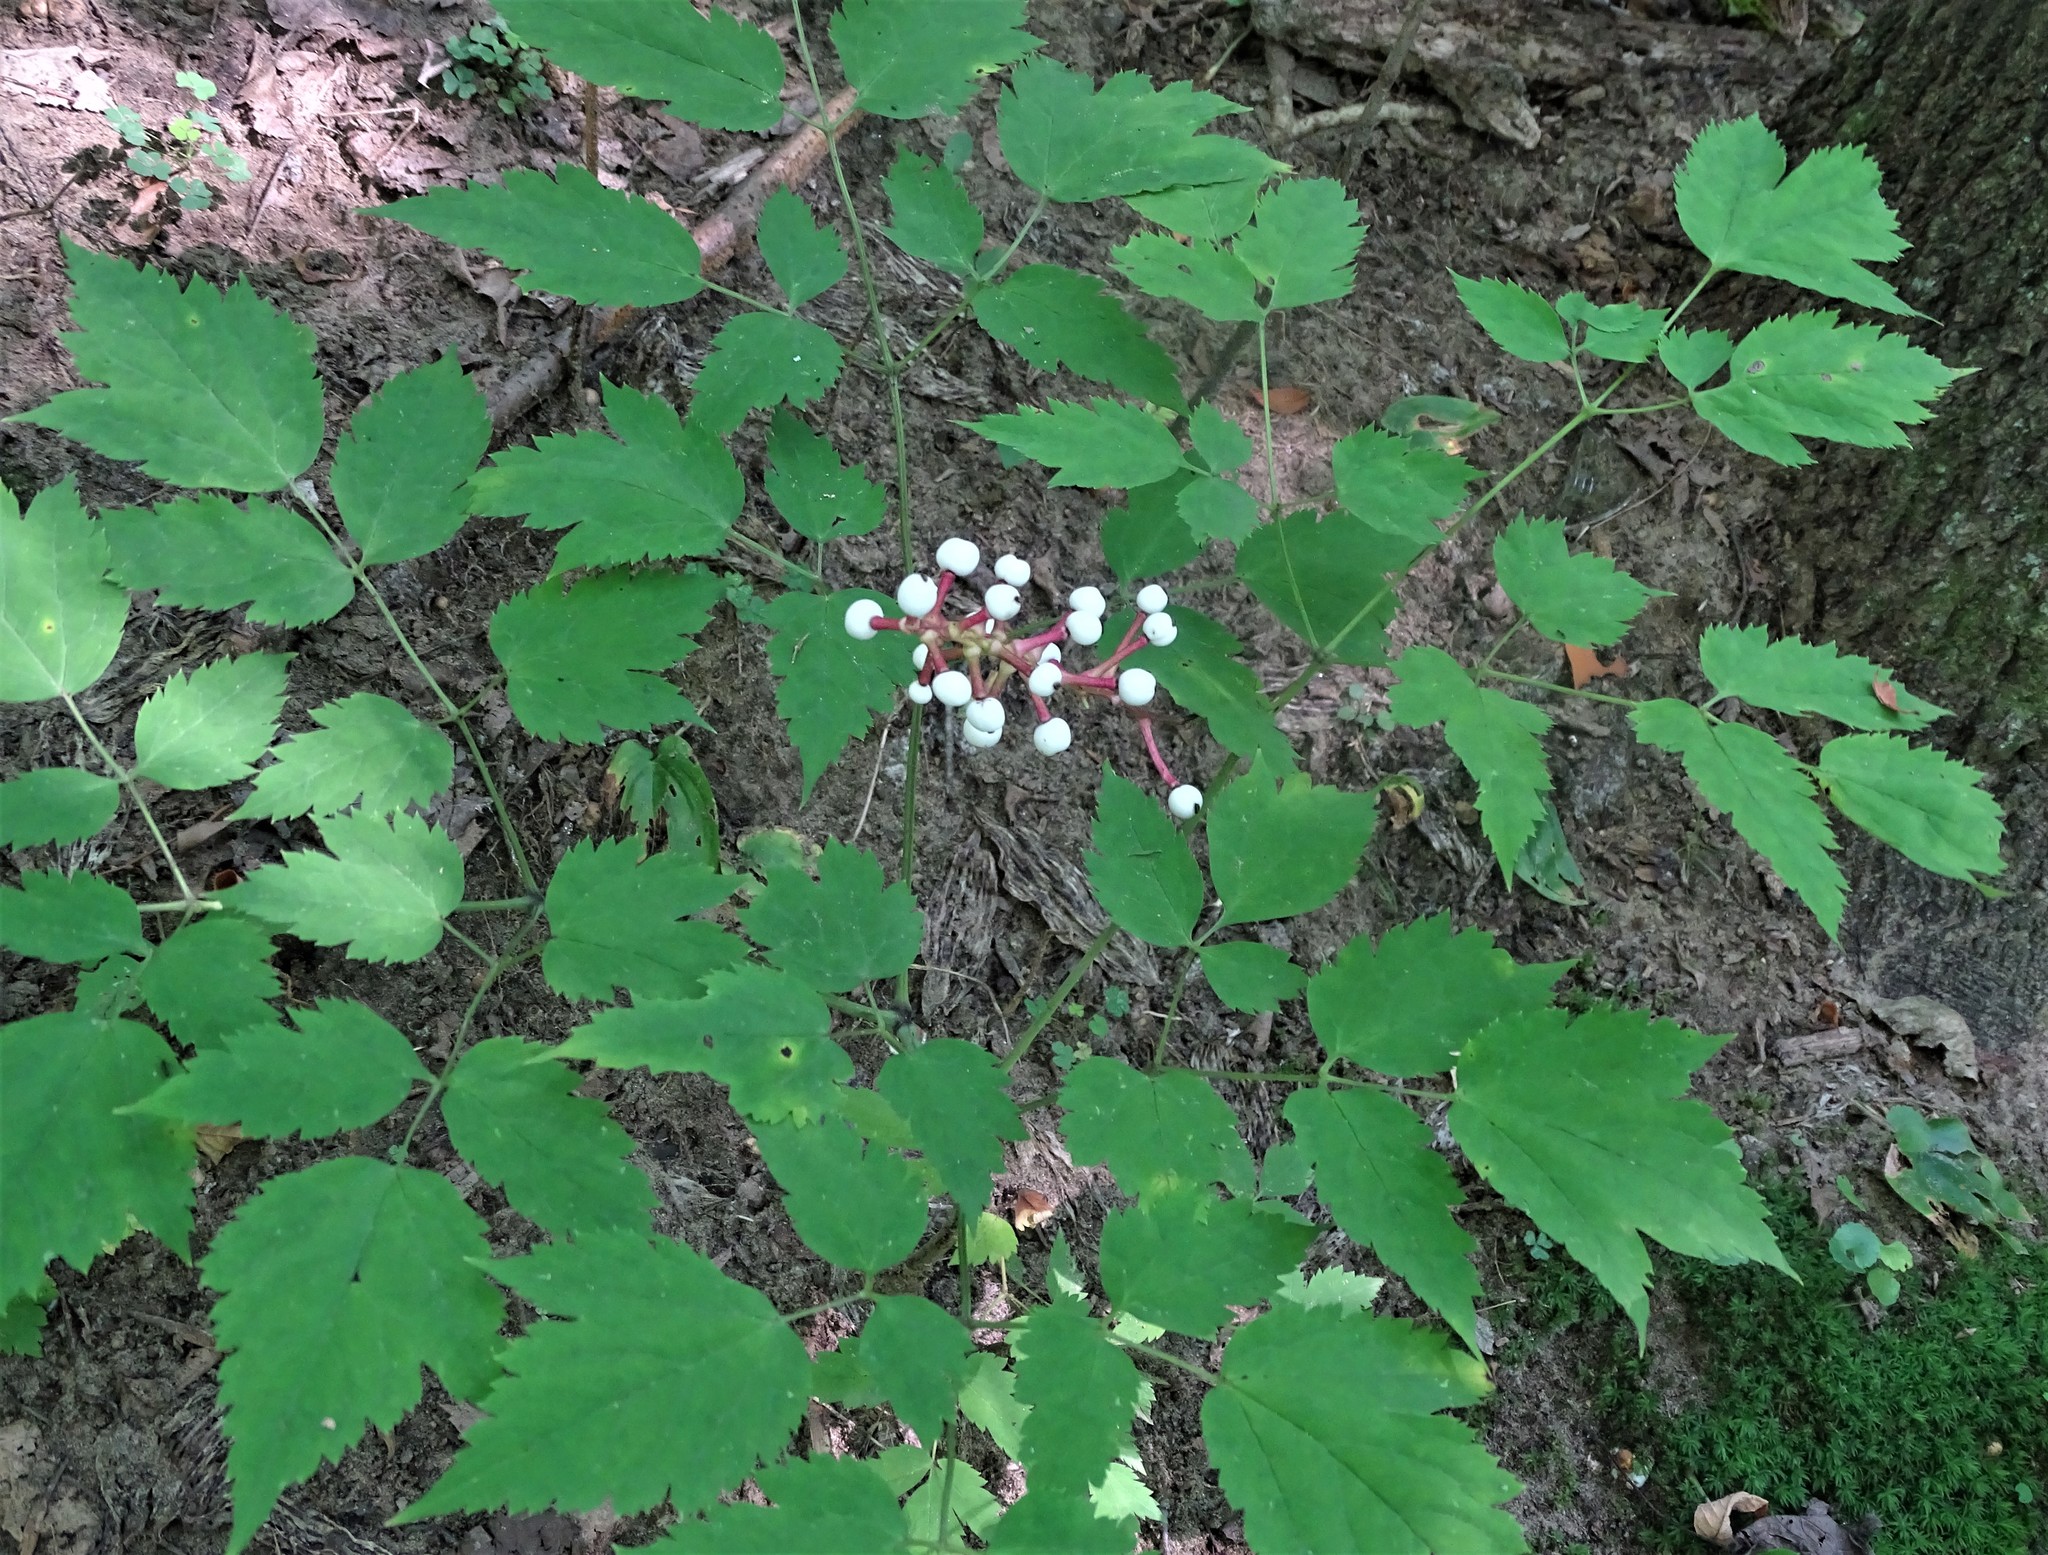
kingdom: Plantae
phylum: Tracheophyta
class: Magnoliopsida
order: Ranunculales
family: Ranunculaceae
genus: Actaea
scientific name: Actaea pachypoda
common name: Doll's-eyes
